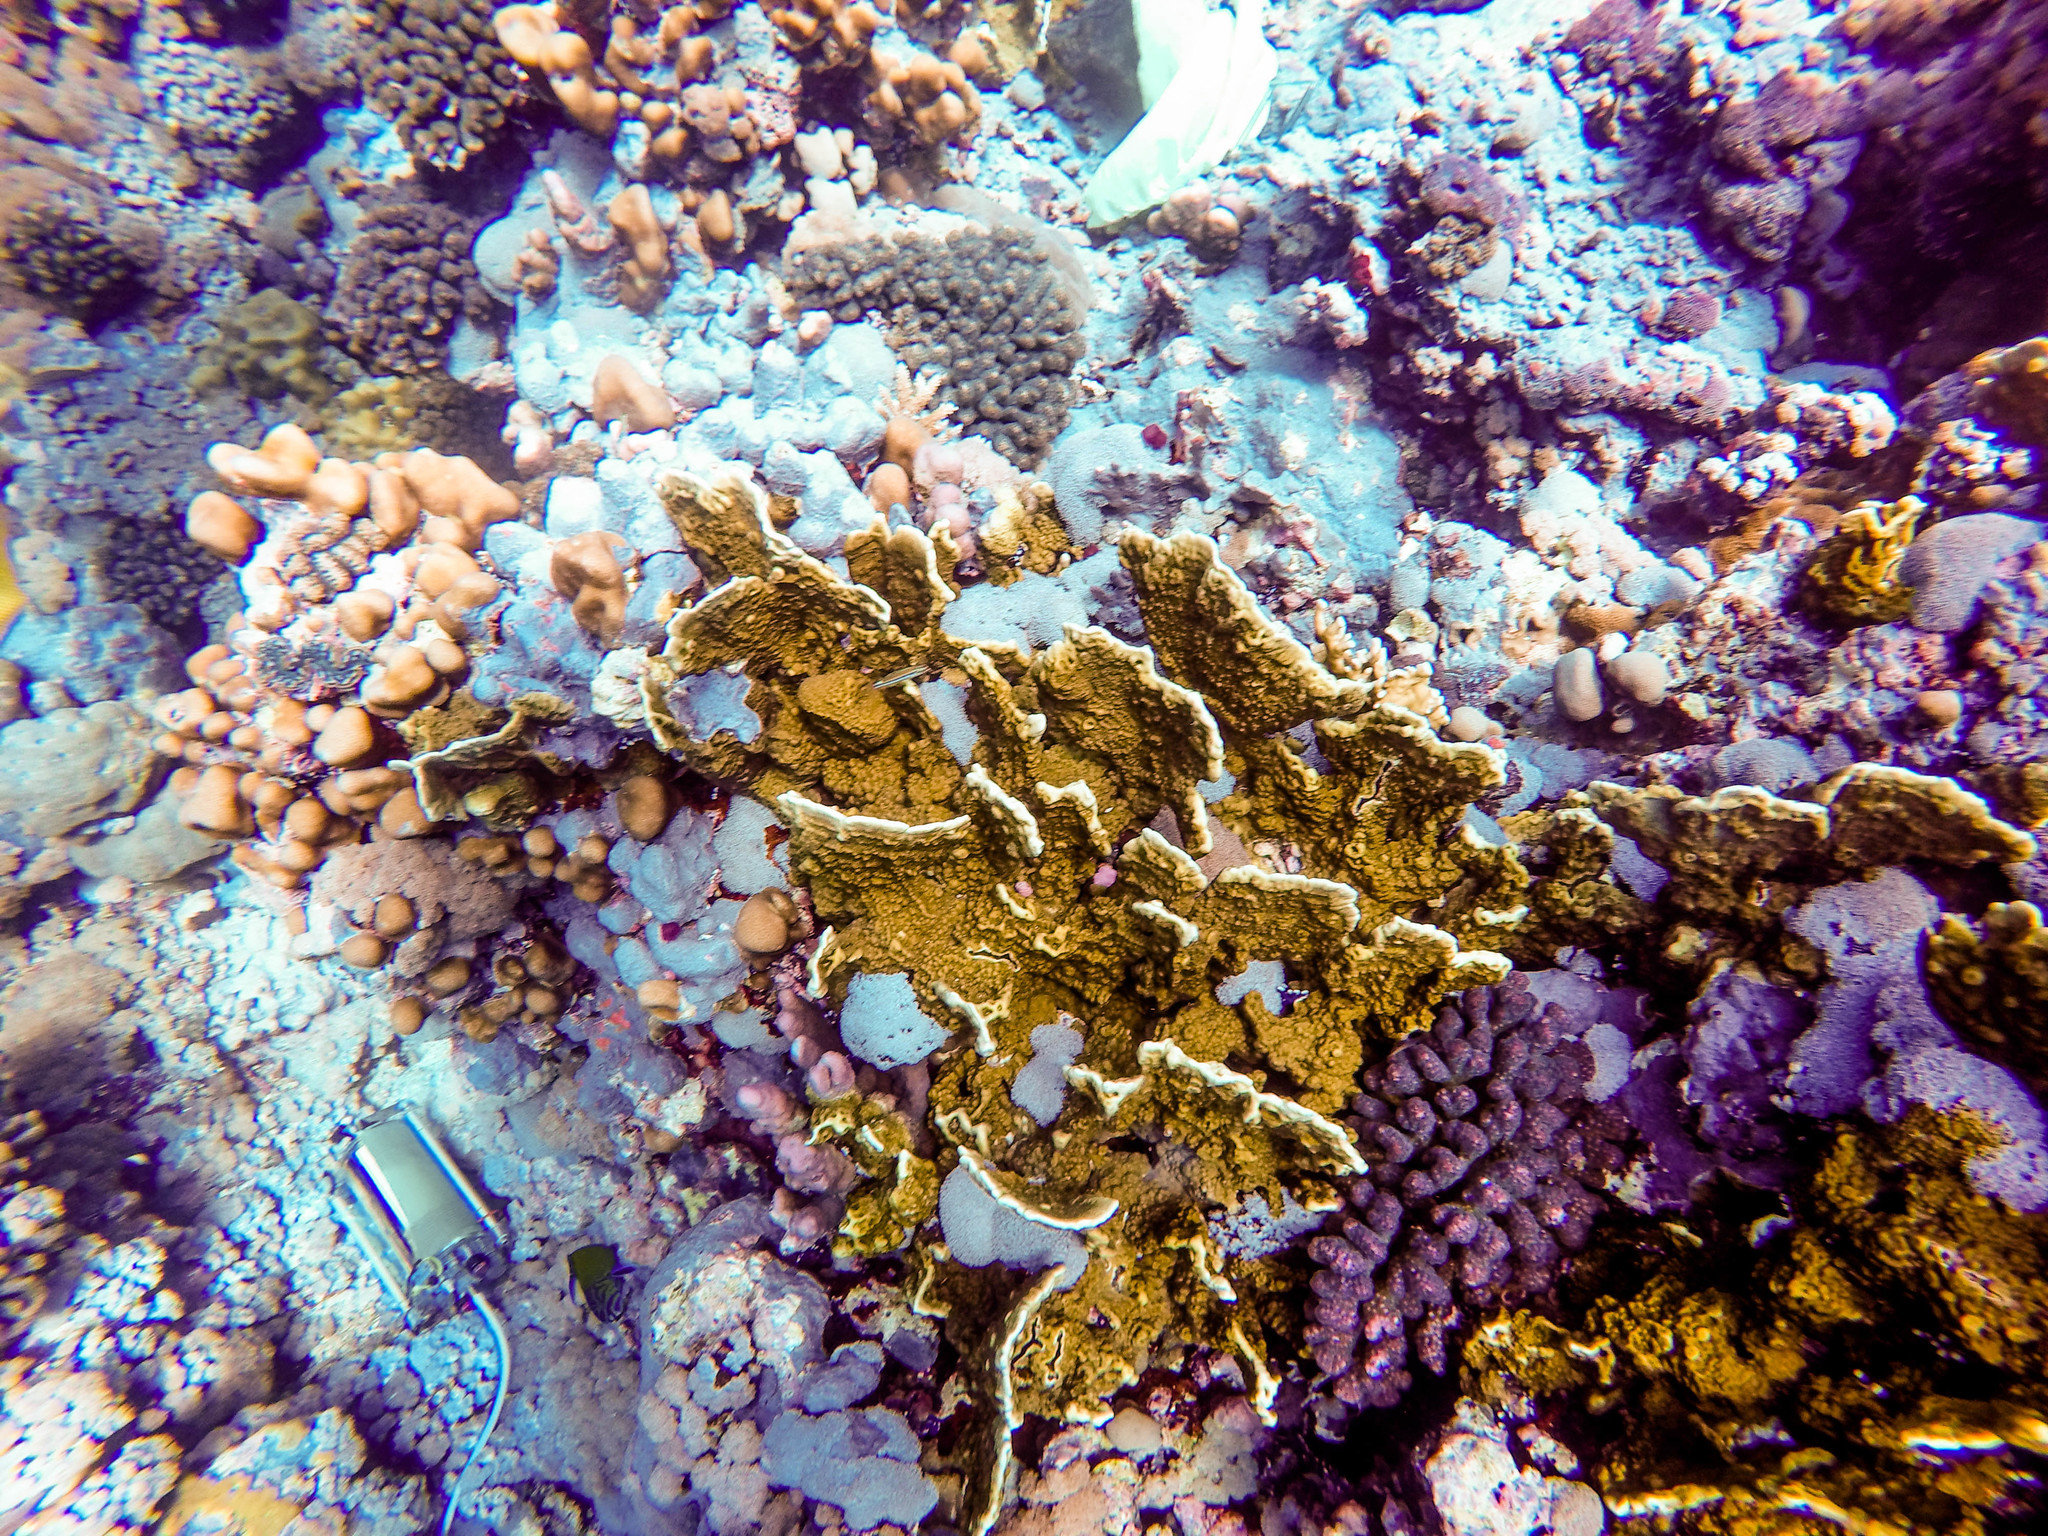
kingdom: Animalia
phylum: Cnidaria
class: Hydrozoa
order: Anthoathecata
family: Milleporidae
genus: Millepora
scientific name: Millepora platyphylla
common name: Sheet fire coral
